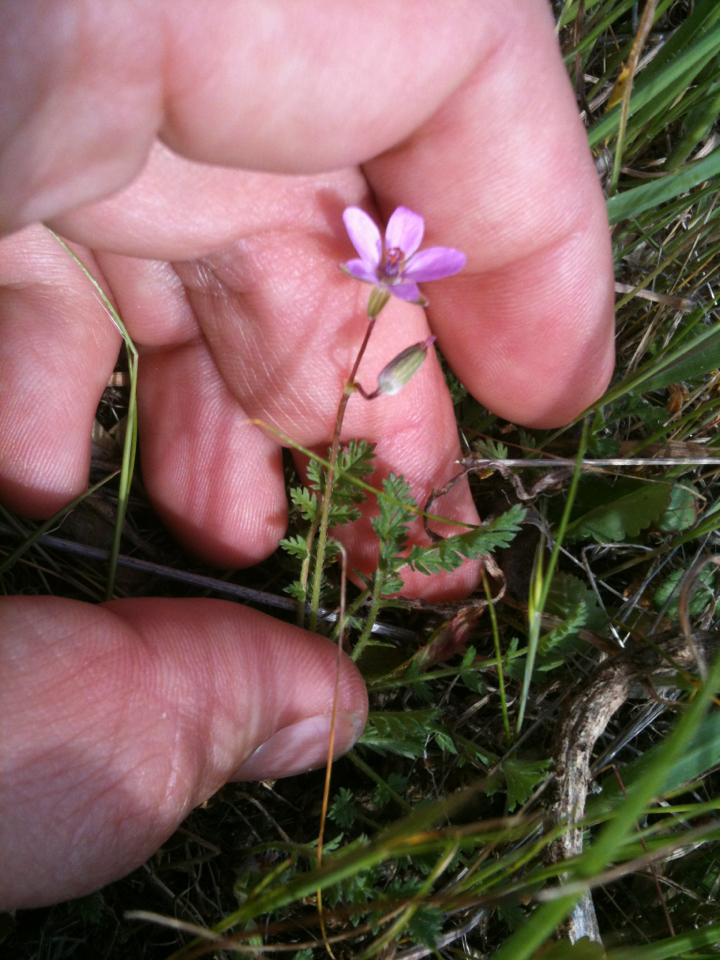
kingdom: Plantae
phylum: Tracheophyta
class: Magnoliopsida
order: Geraniales
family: Geraniaceae
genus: Erodium
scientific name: Erodium cicutarium
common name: Common stork's-bill
